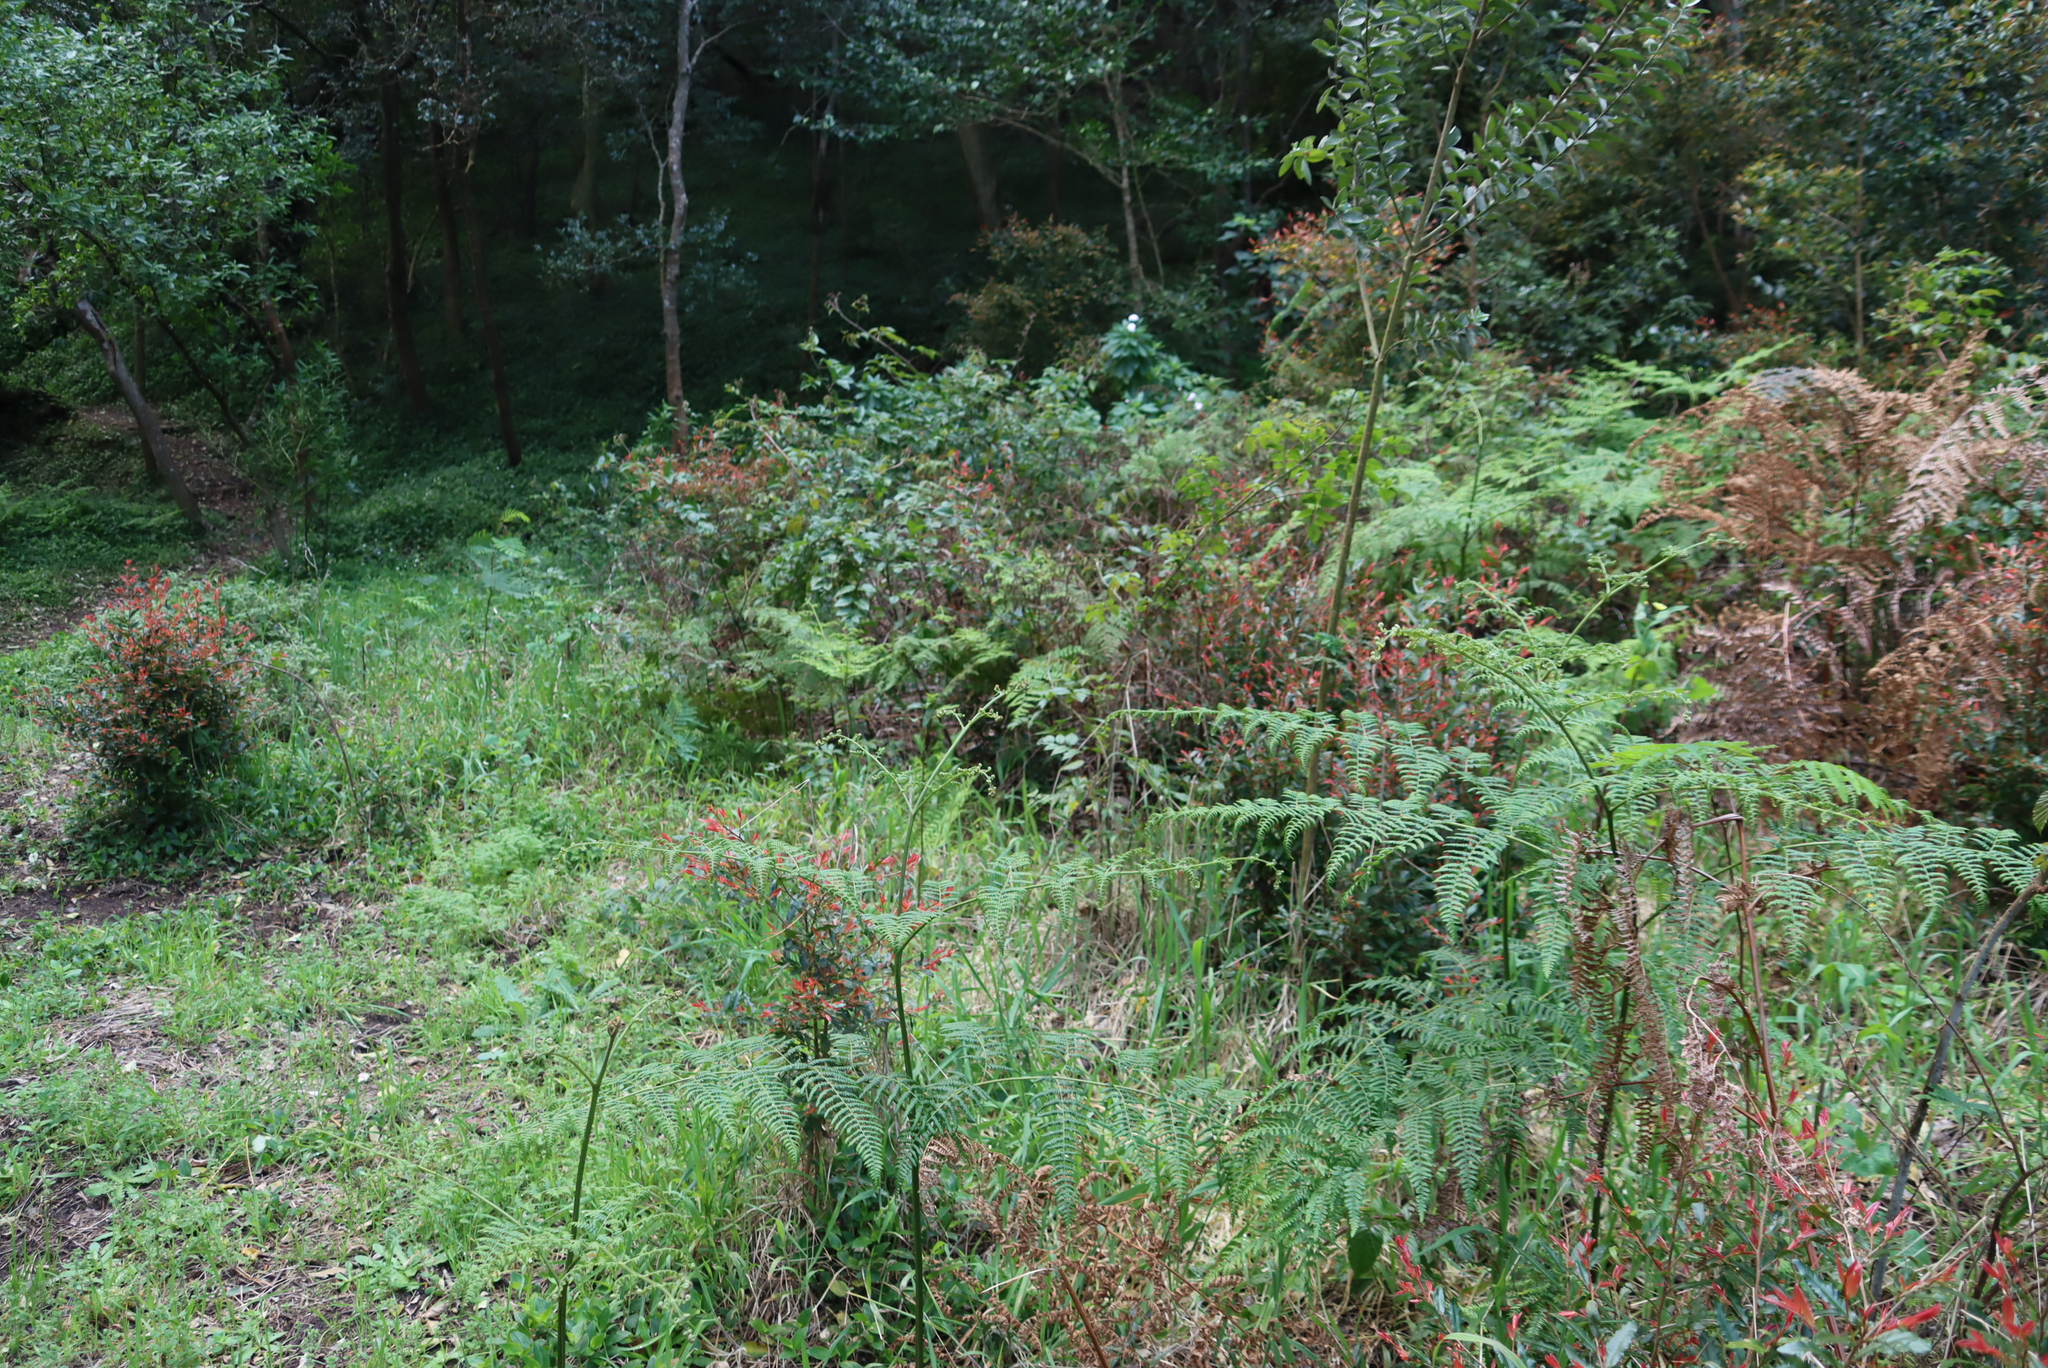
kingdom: Plantae
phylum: Tracheophyta
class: Magnoliopsida
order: Malpighiales
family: Ochnaceae
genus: Ochna
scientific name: Ochna serrulata
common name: Mickey mouse plant
